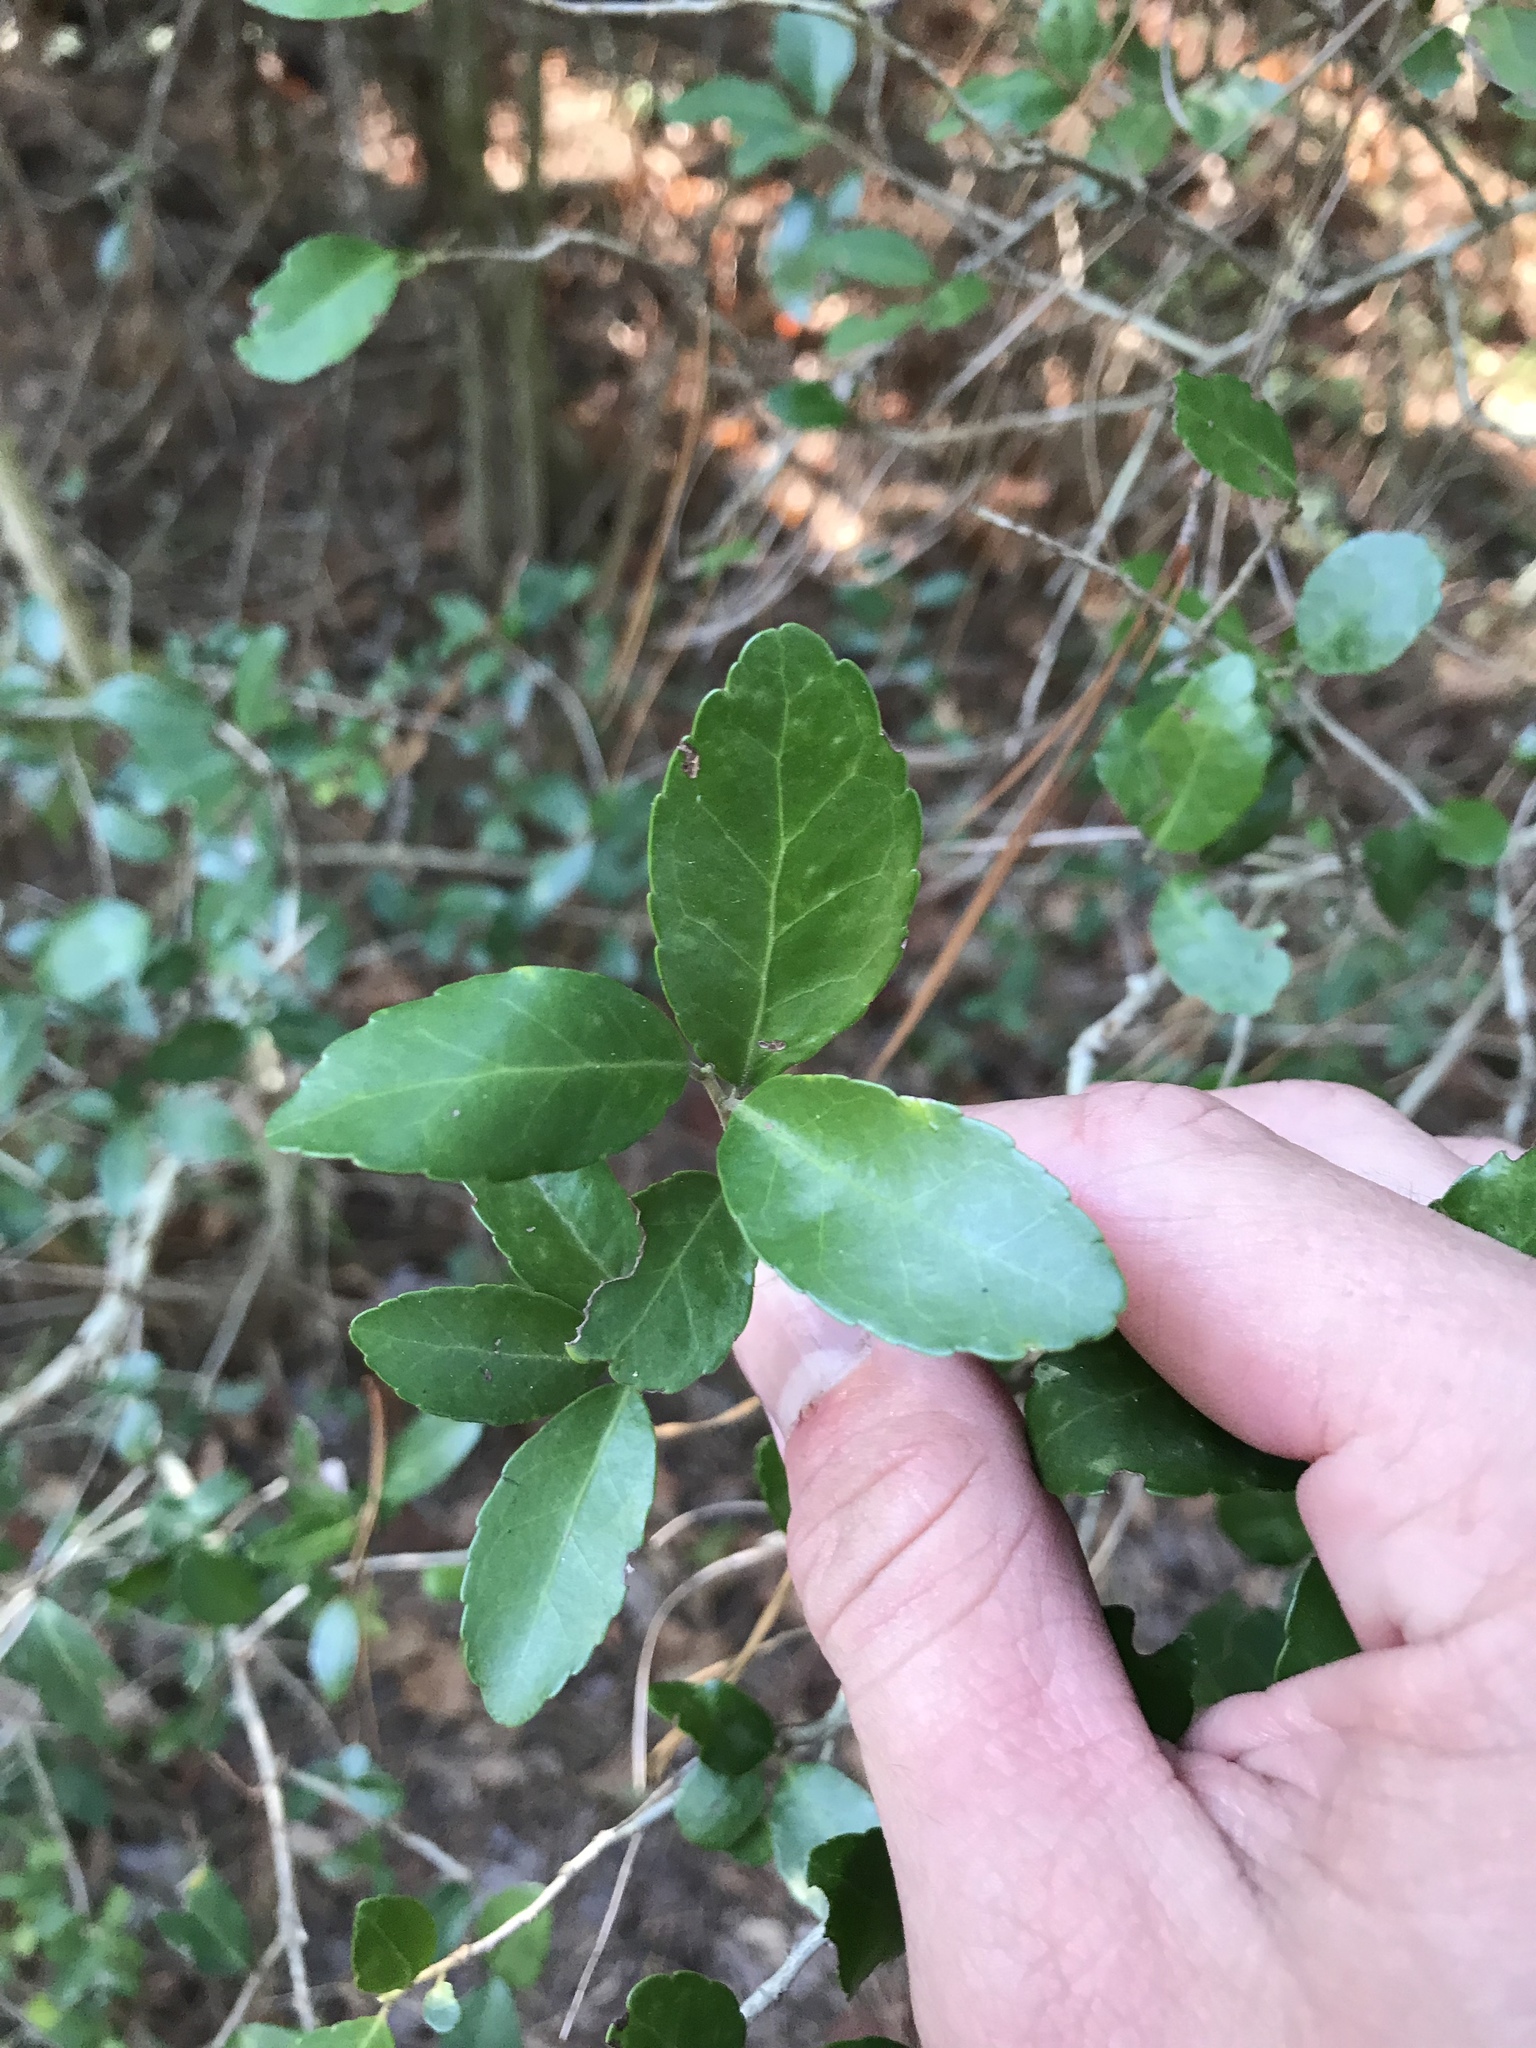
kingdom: Plantae
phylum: Tracheophyta
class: Magnoliopsida
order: Aquifoliales
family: Aquifoliaceae
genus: Ilex
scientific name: Ilex vomitoria
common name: Yaupon holly
